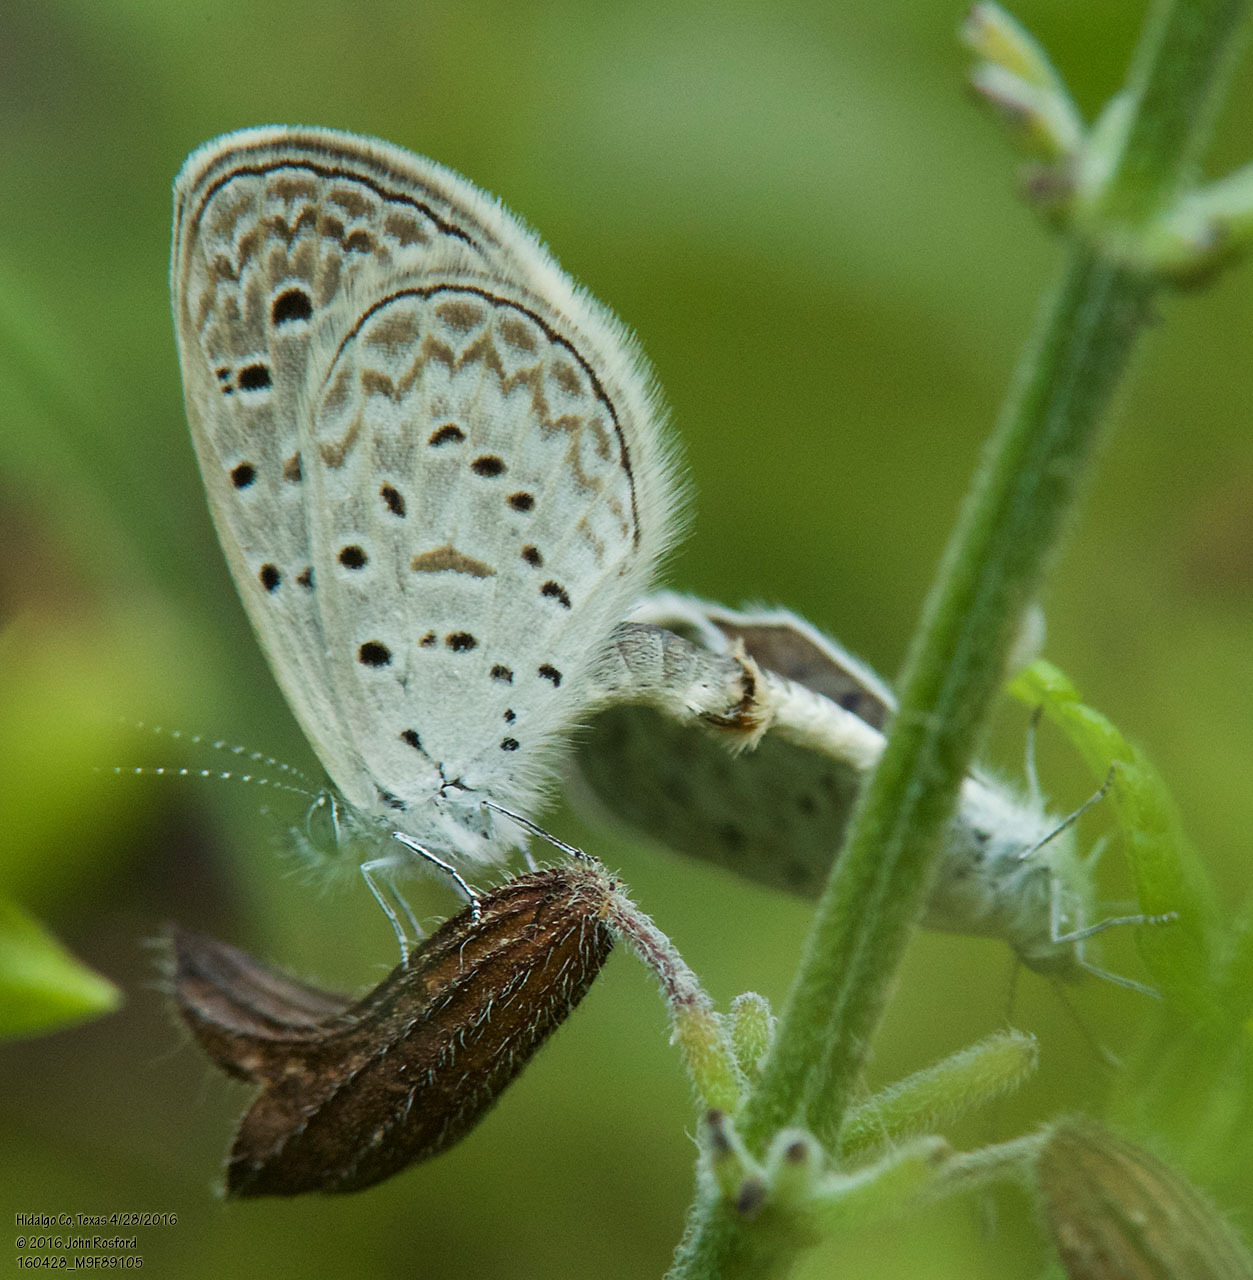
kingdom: Animalia
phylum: Arthropoda
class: Insecta
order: Lepidoptera
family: Lycaenidae
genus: Lycaena
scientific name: Lycaena cyna
